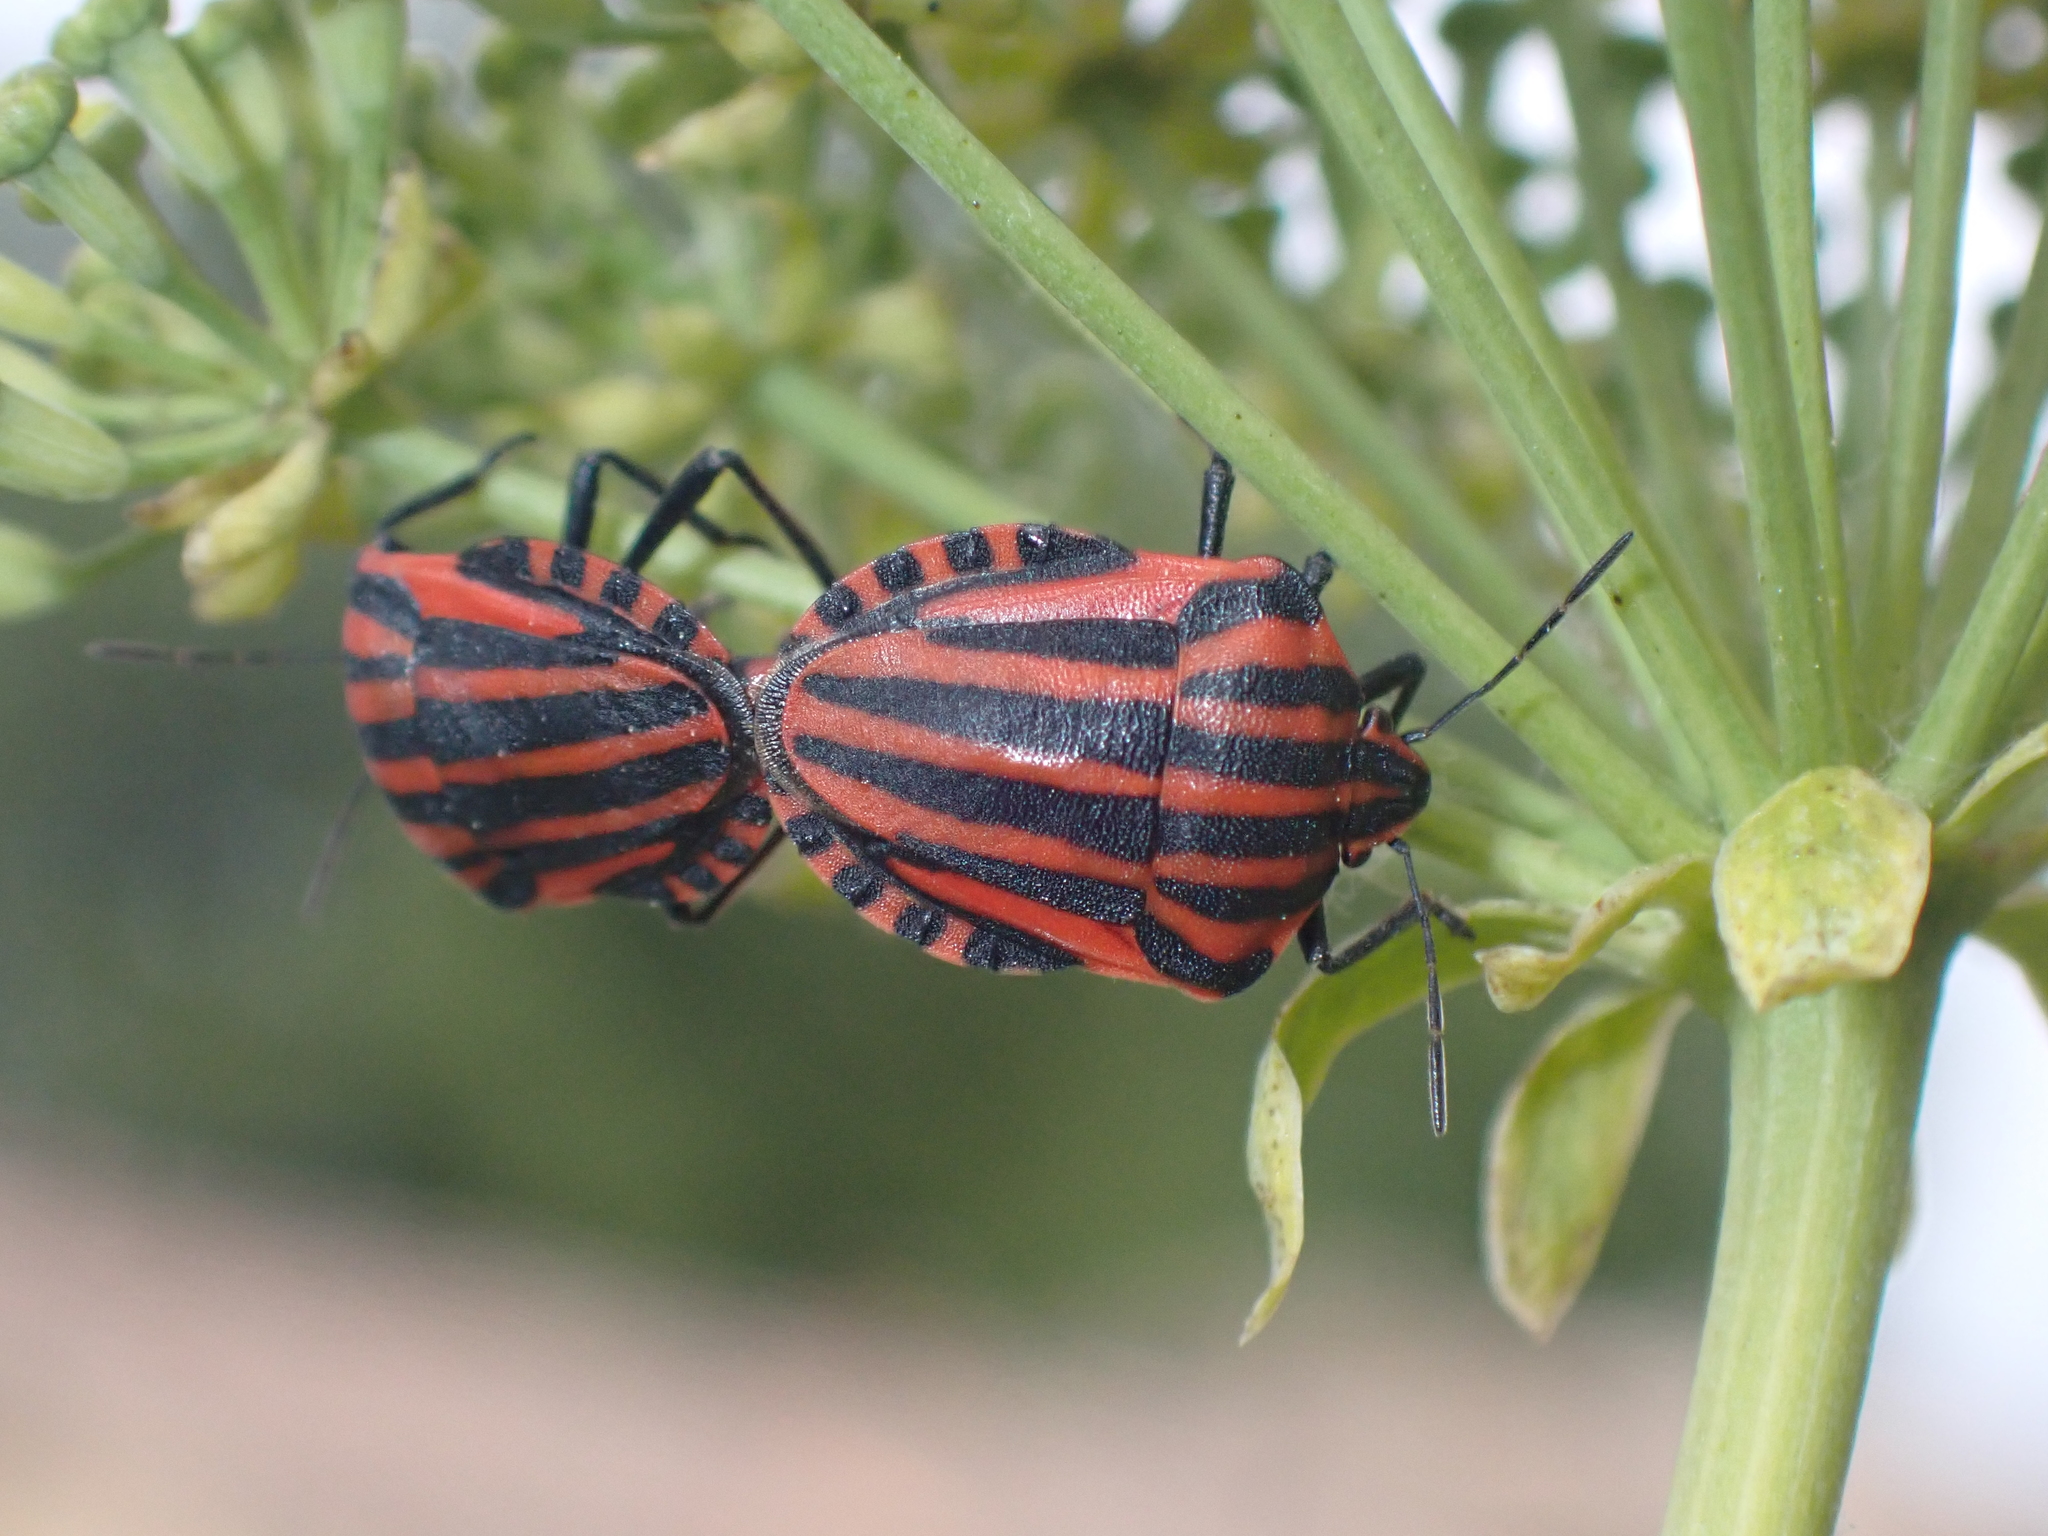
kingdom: Animalia
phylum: Arthropoda
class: Insecta
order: Hemiptera
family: Pentatomidae
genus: Graphosoma
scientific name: Graphosoma italicum
